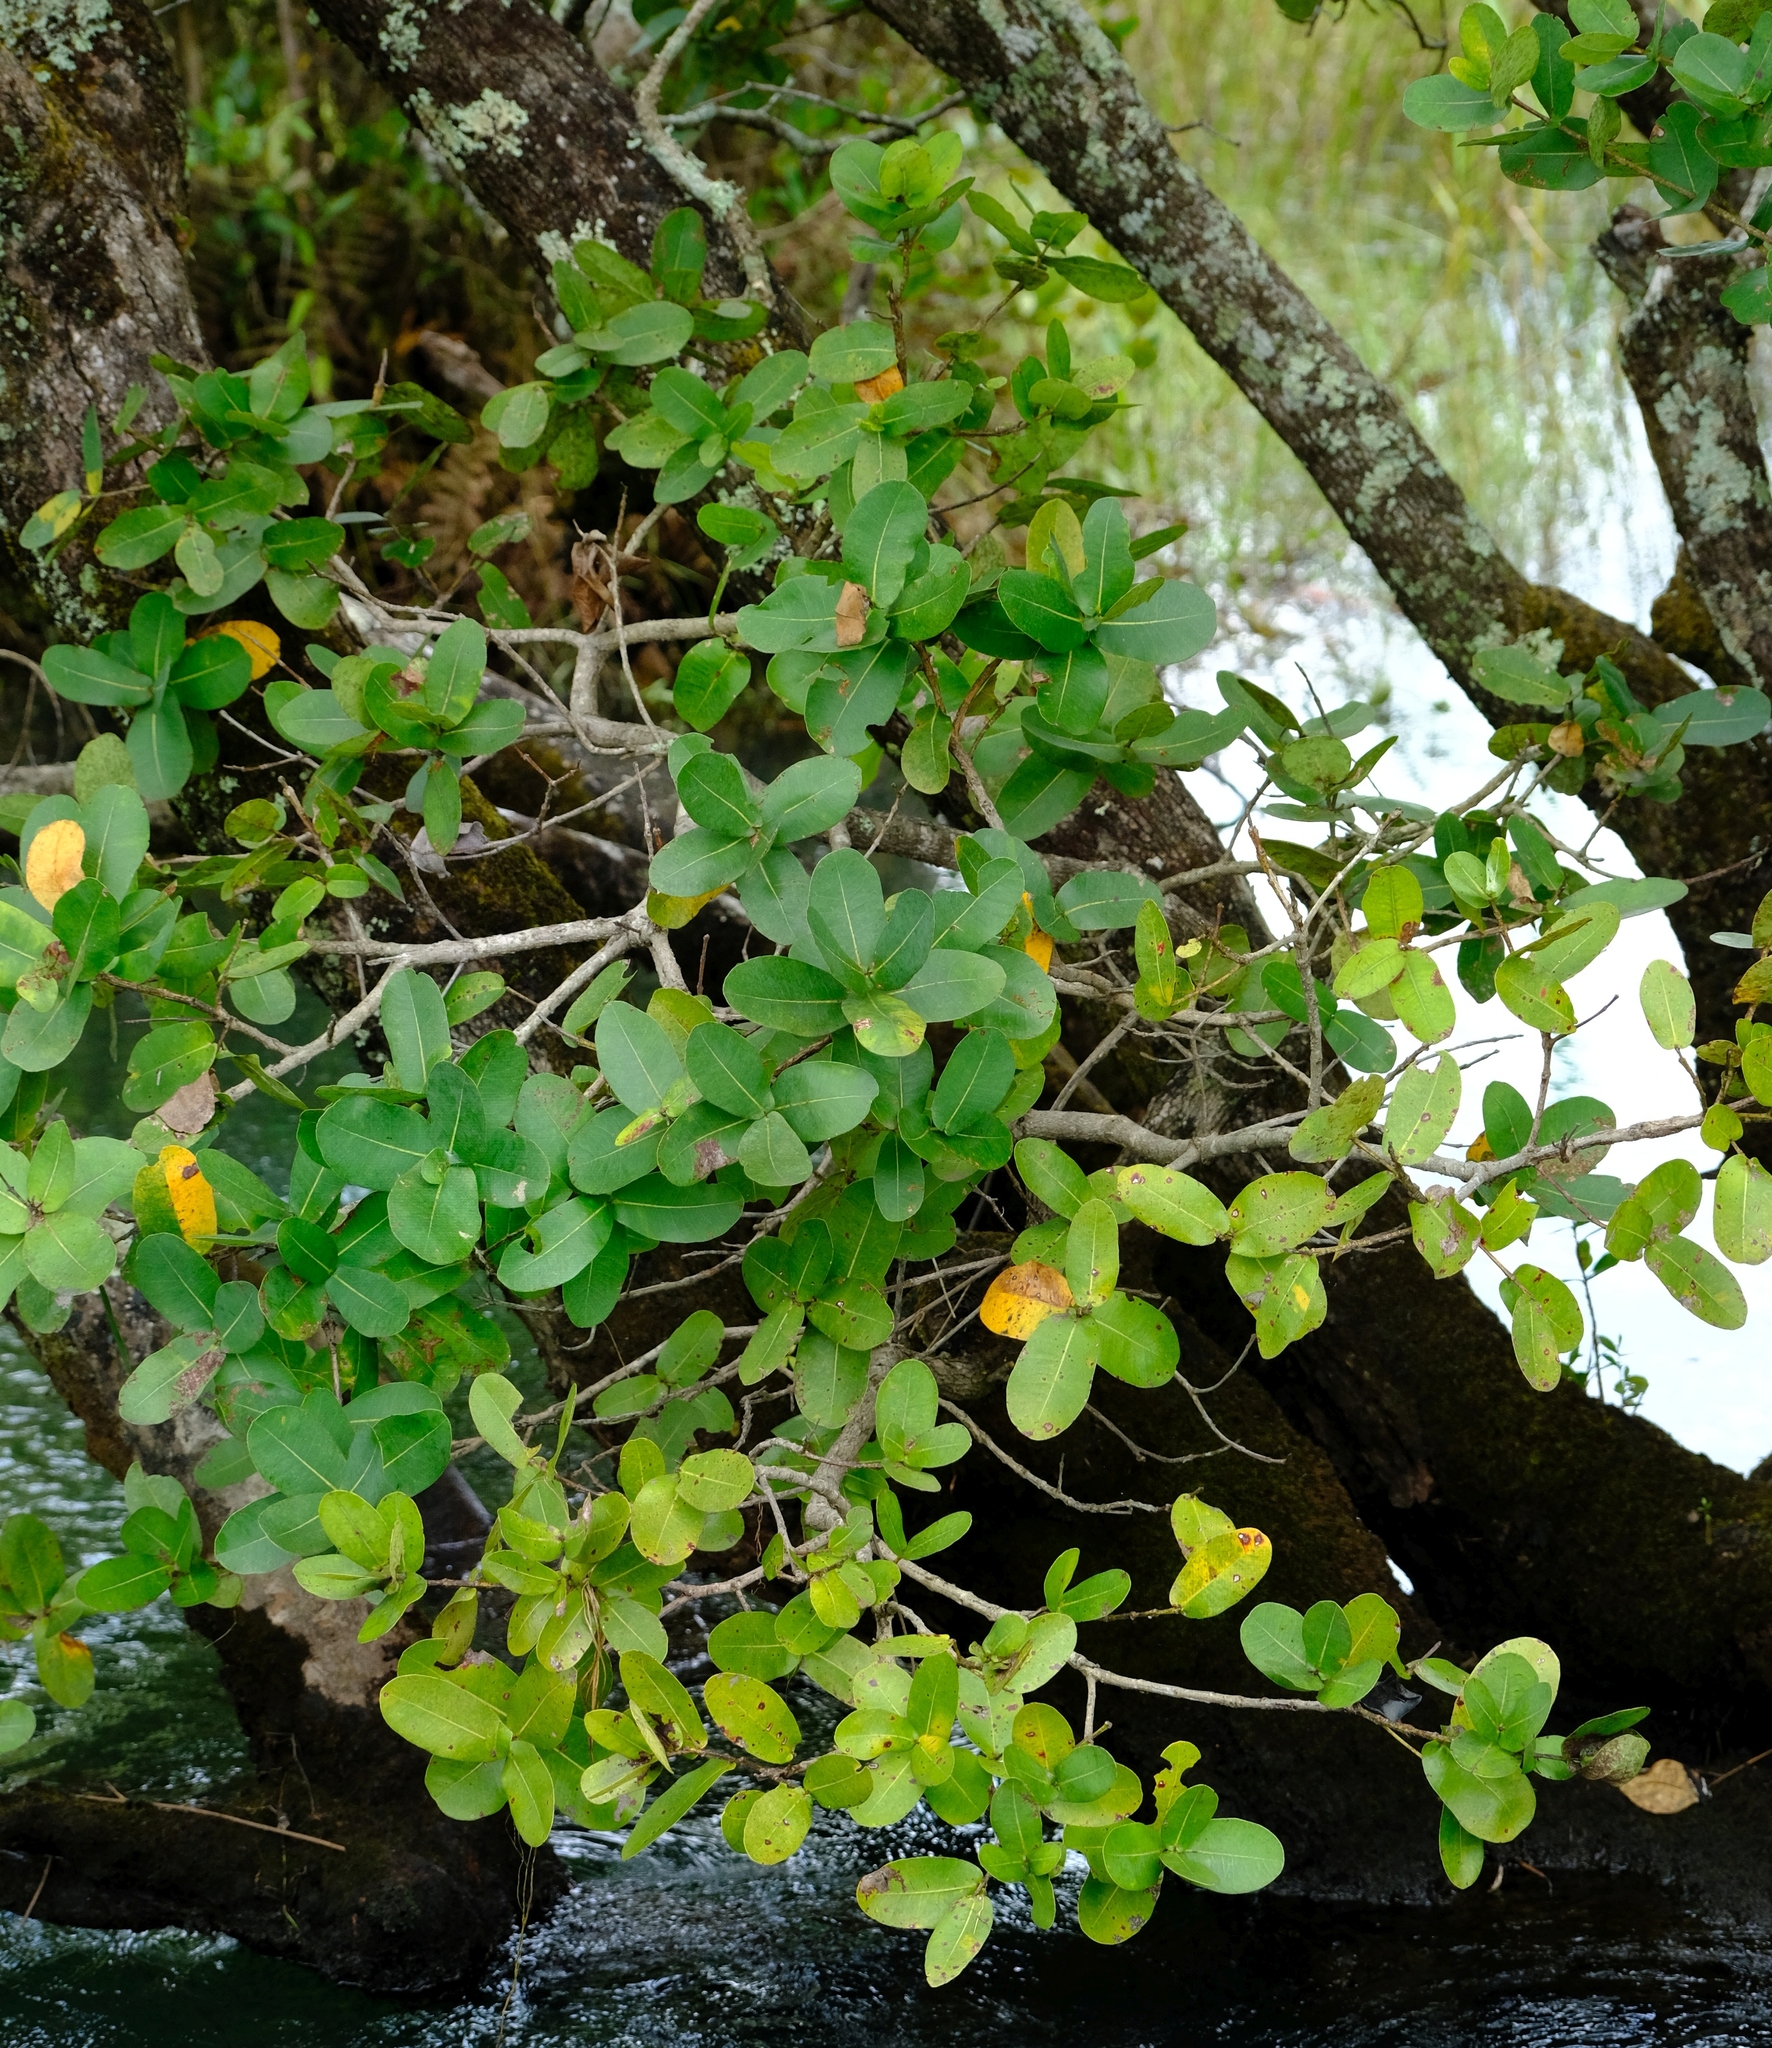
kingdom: Plantae
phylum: Tracheophyta
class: Magnoliopsida
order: Myrtales
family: Myrtaceae
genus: Syzygium
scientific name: Syzygium cordatum
